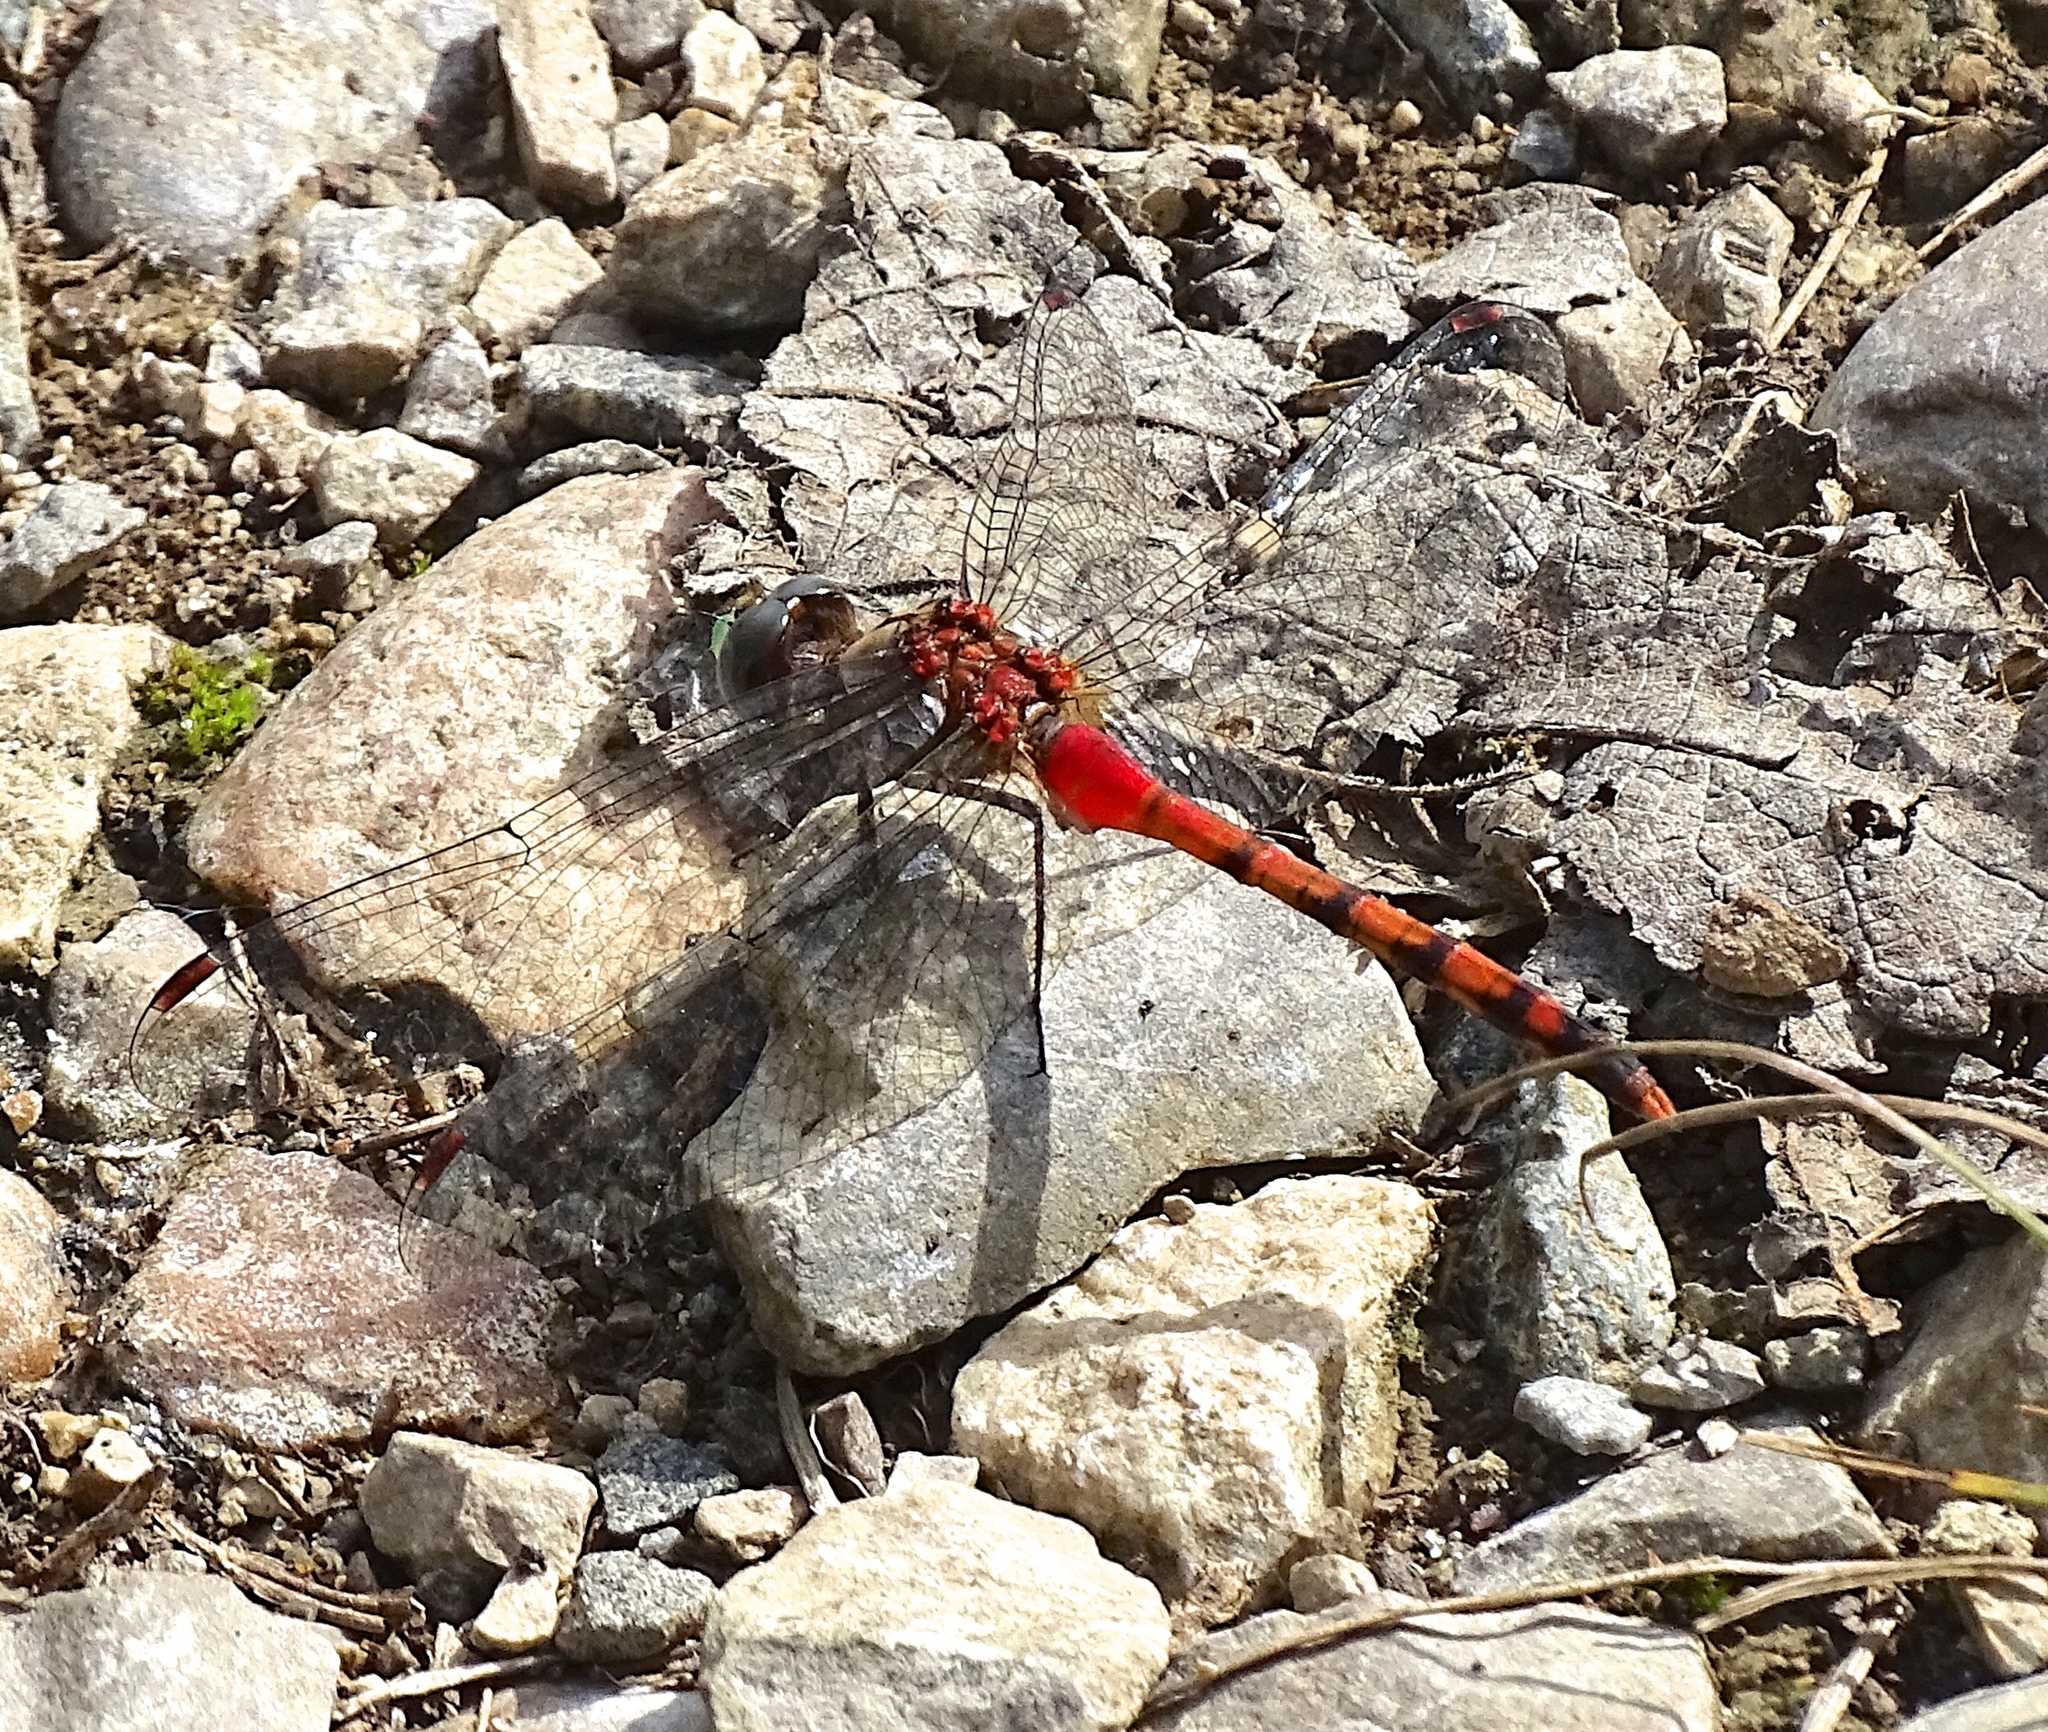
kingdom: Animalia
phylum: Arthropoda
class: Insecta
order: Odonata
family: Libellulidae
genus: Sympetrum
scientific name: Sympetrum ambiguum
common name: Blue-faced meadowhawk
